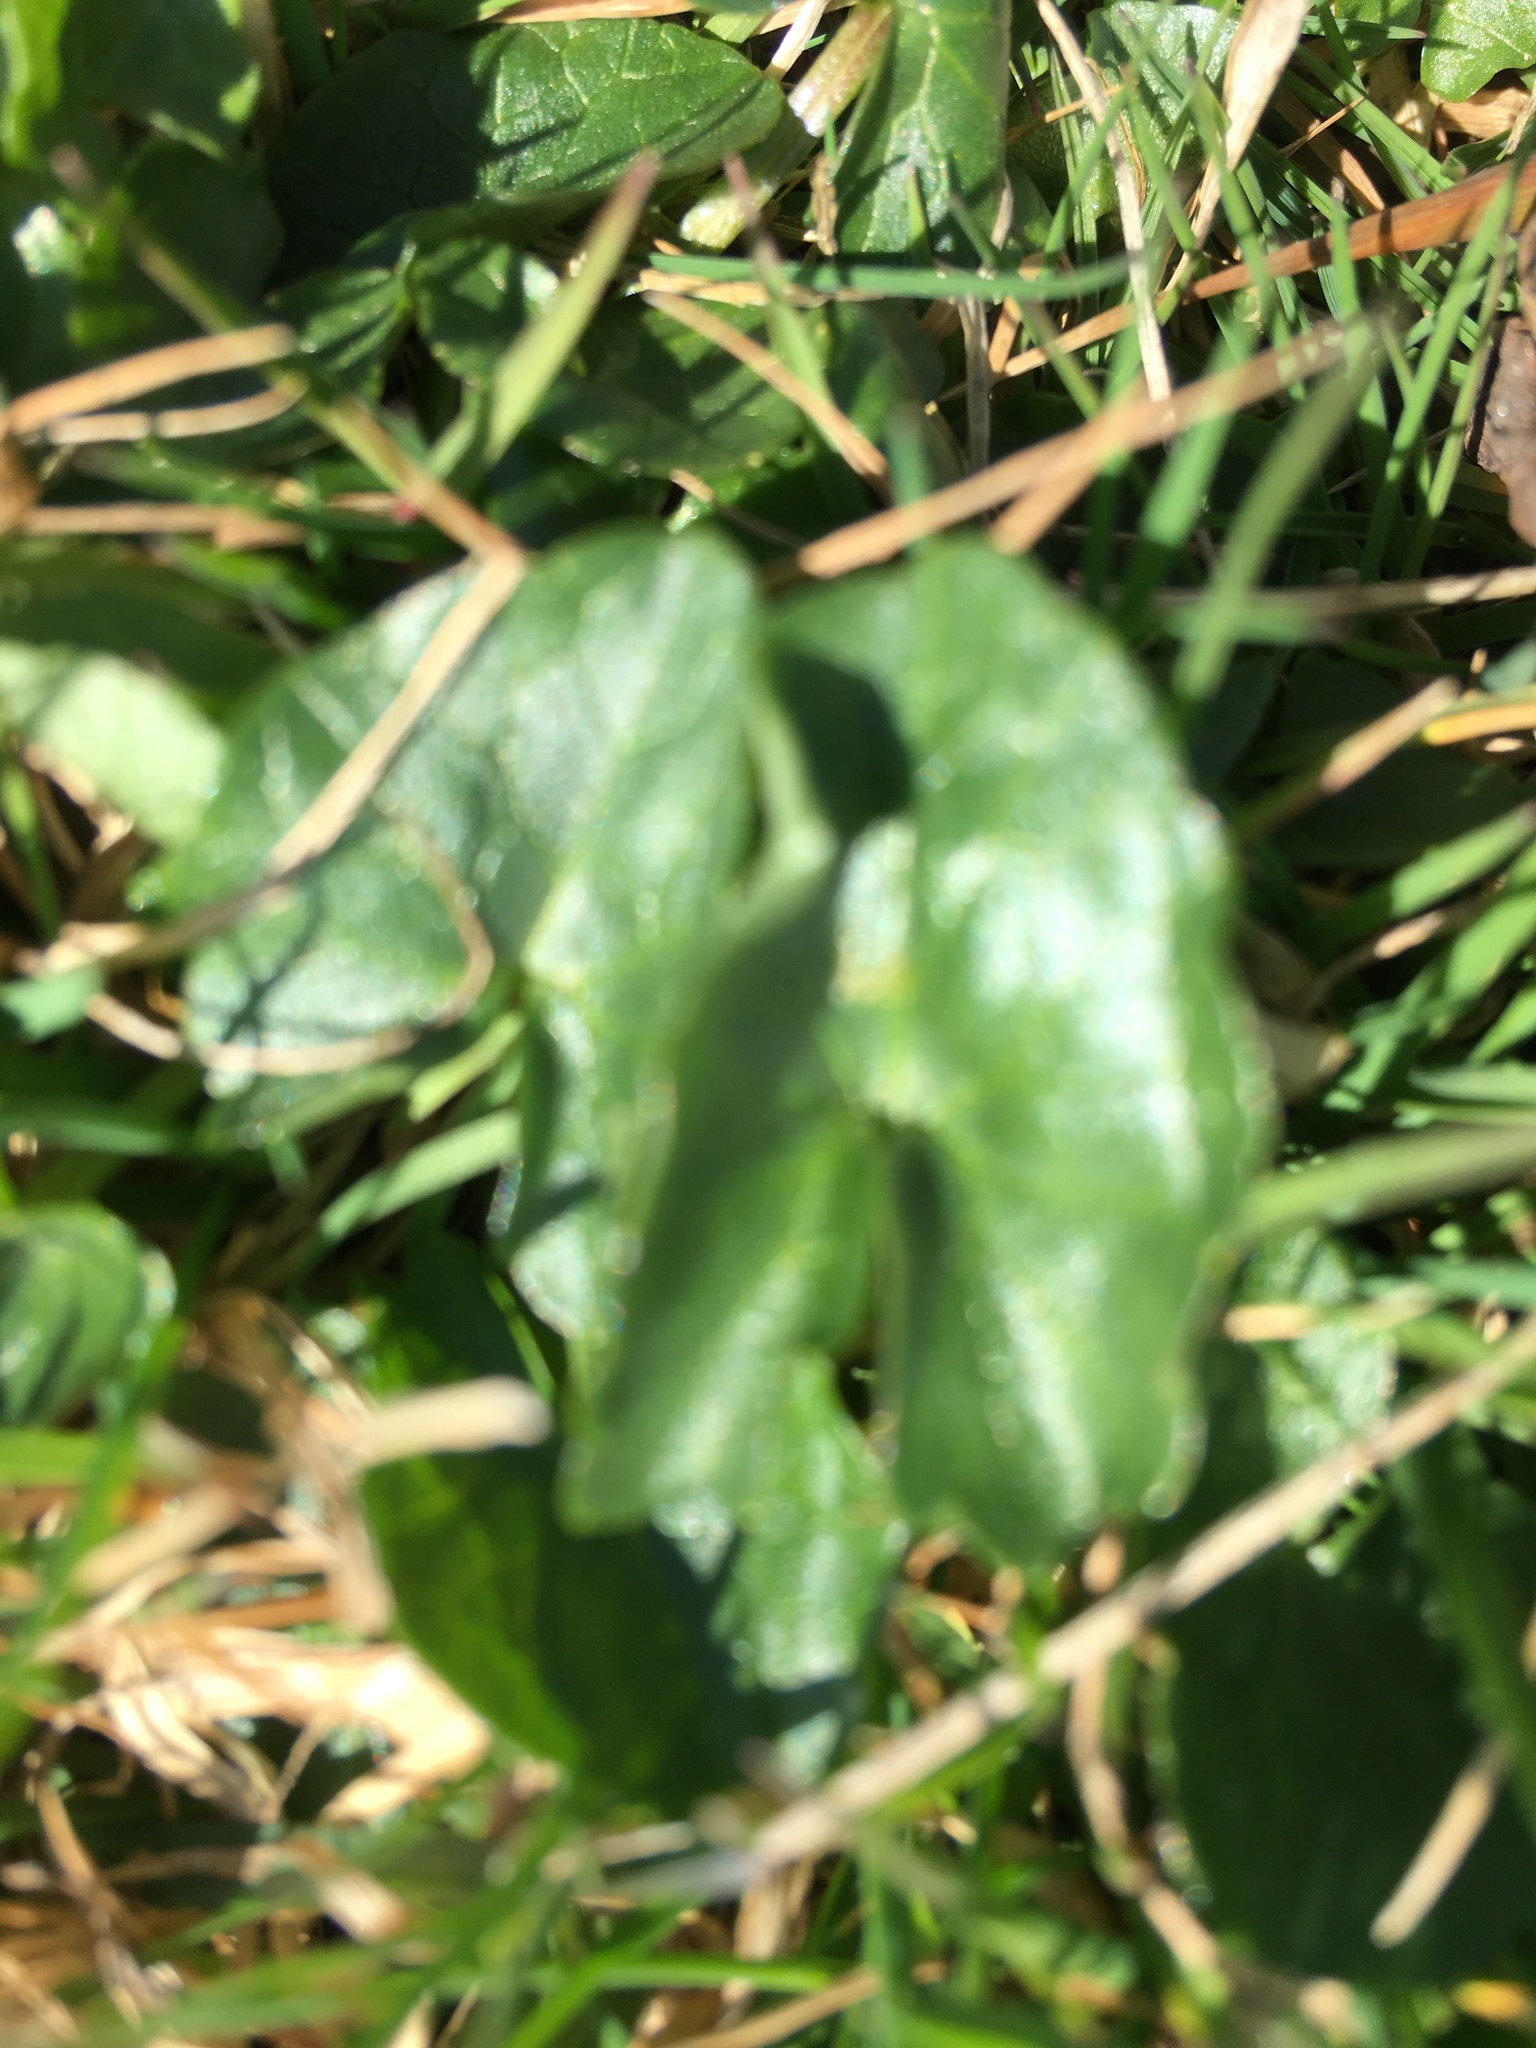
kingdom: Plantae
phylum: Tracheophyta
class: Magnoliopsida
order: Ranunculales
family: Ranunculaceae
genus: Ficaria
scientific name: Ficaria verna
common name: Lesser celandine
